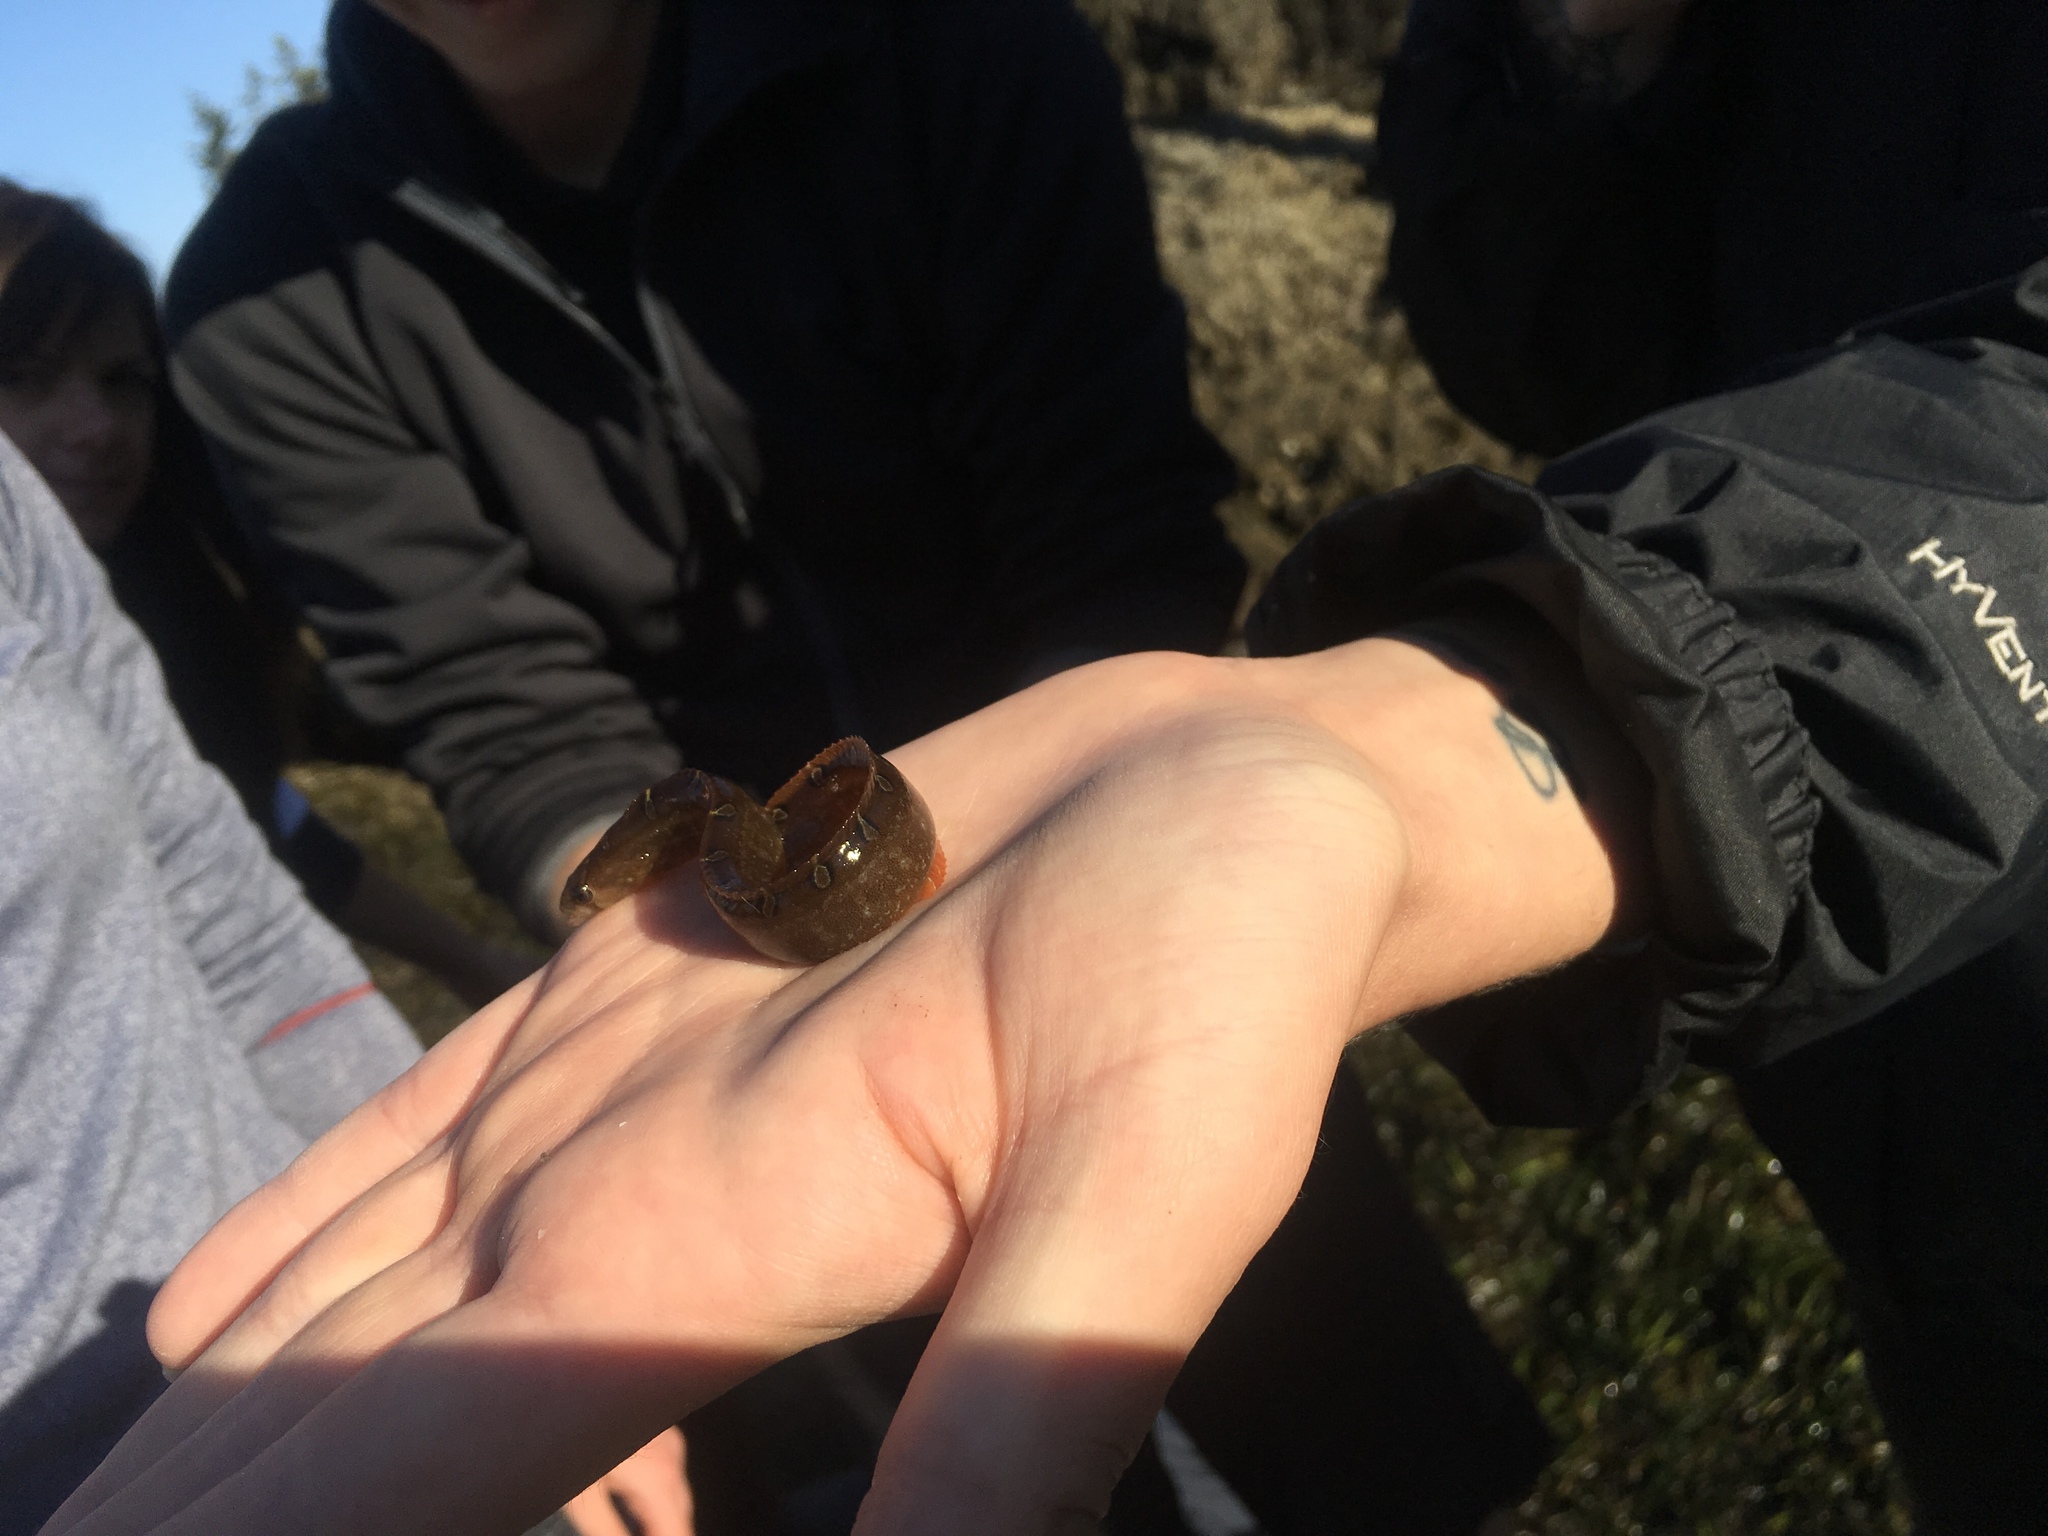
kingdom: Animalia
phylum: Chordata
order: Perciformes
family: Pholidae
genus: Pholis
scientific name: Pholis laeta
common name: Crescent gunnel
